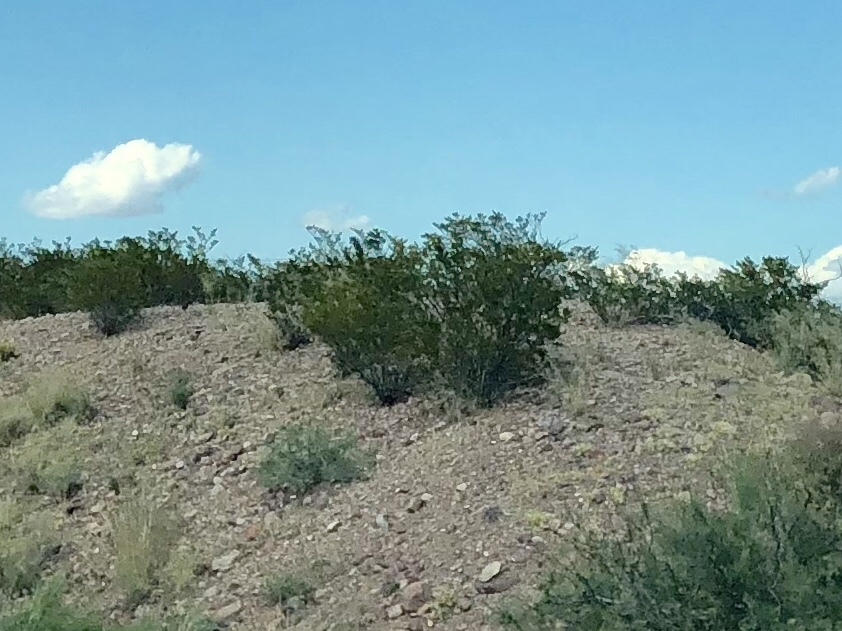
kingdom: Plantae
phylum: Tracheophyta
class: Magnoliopsida
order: Zygophyllales
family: Zygophyllaceae
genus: Larrea
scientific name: Larrea tridentata
